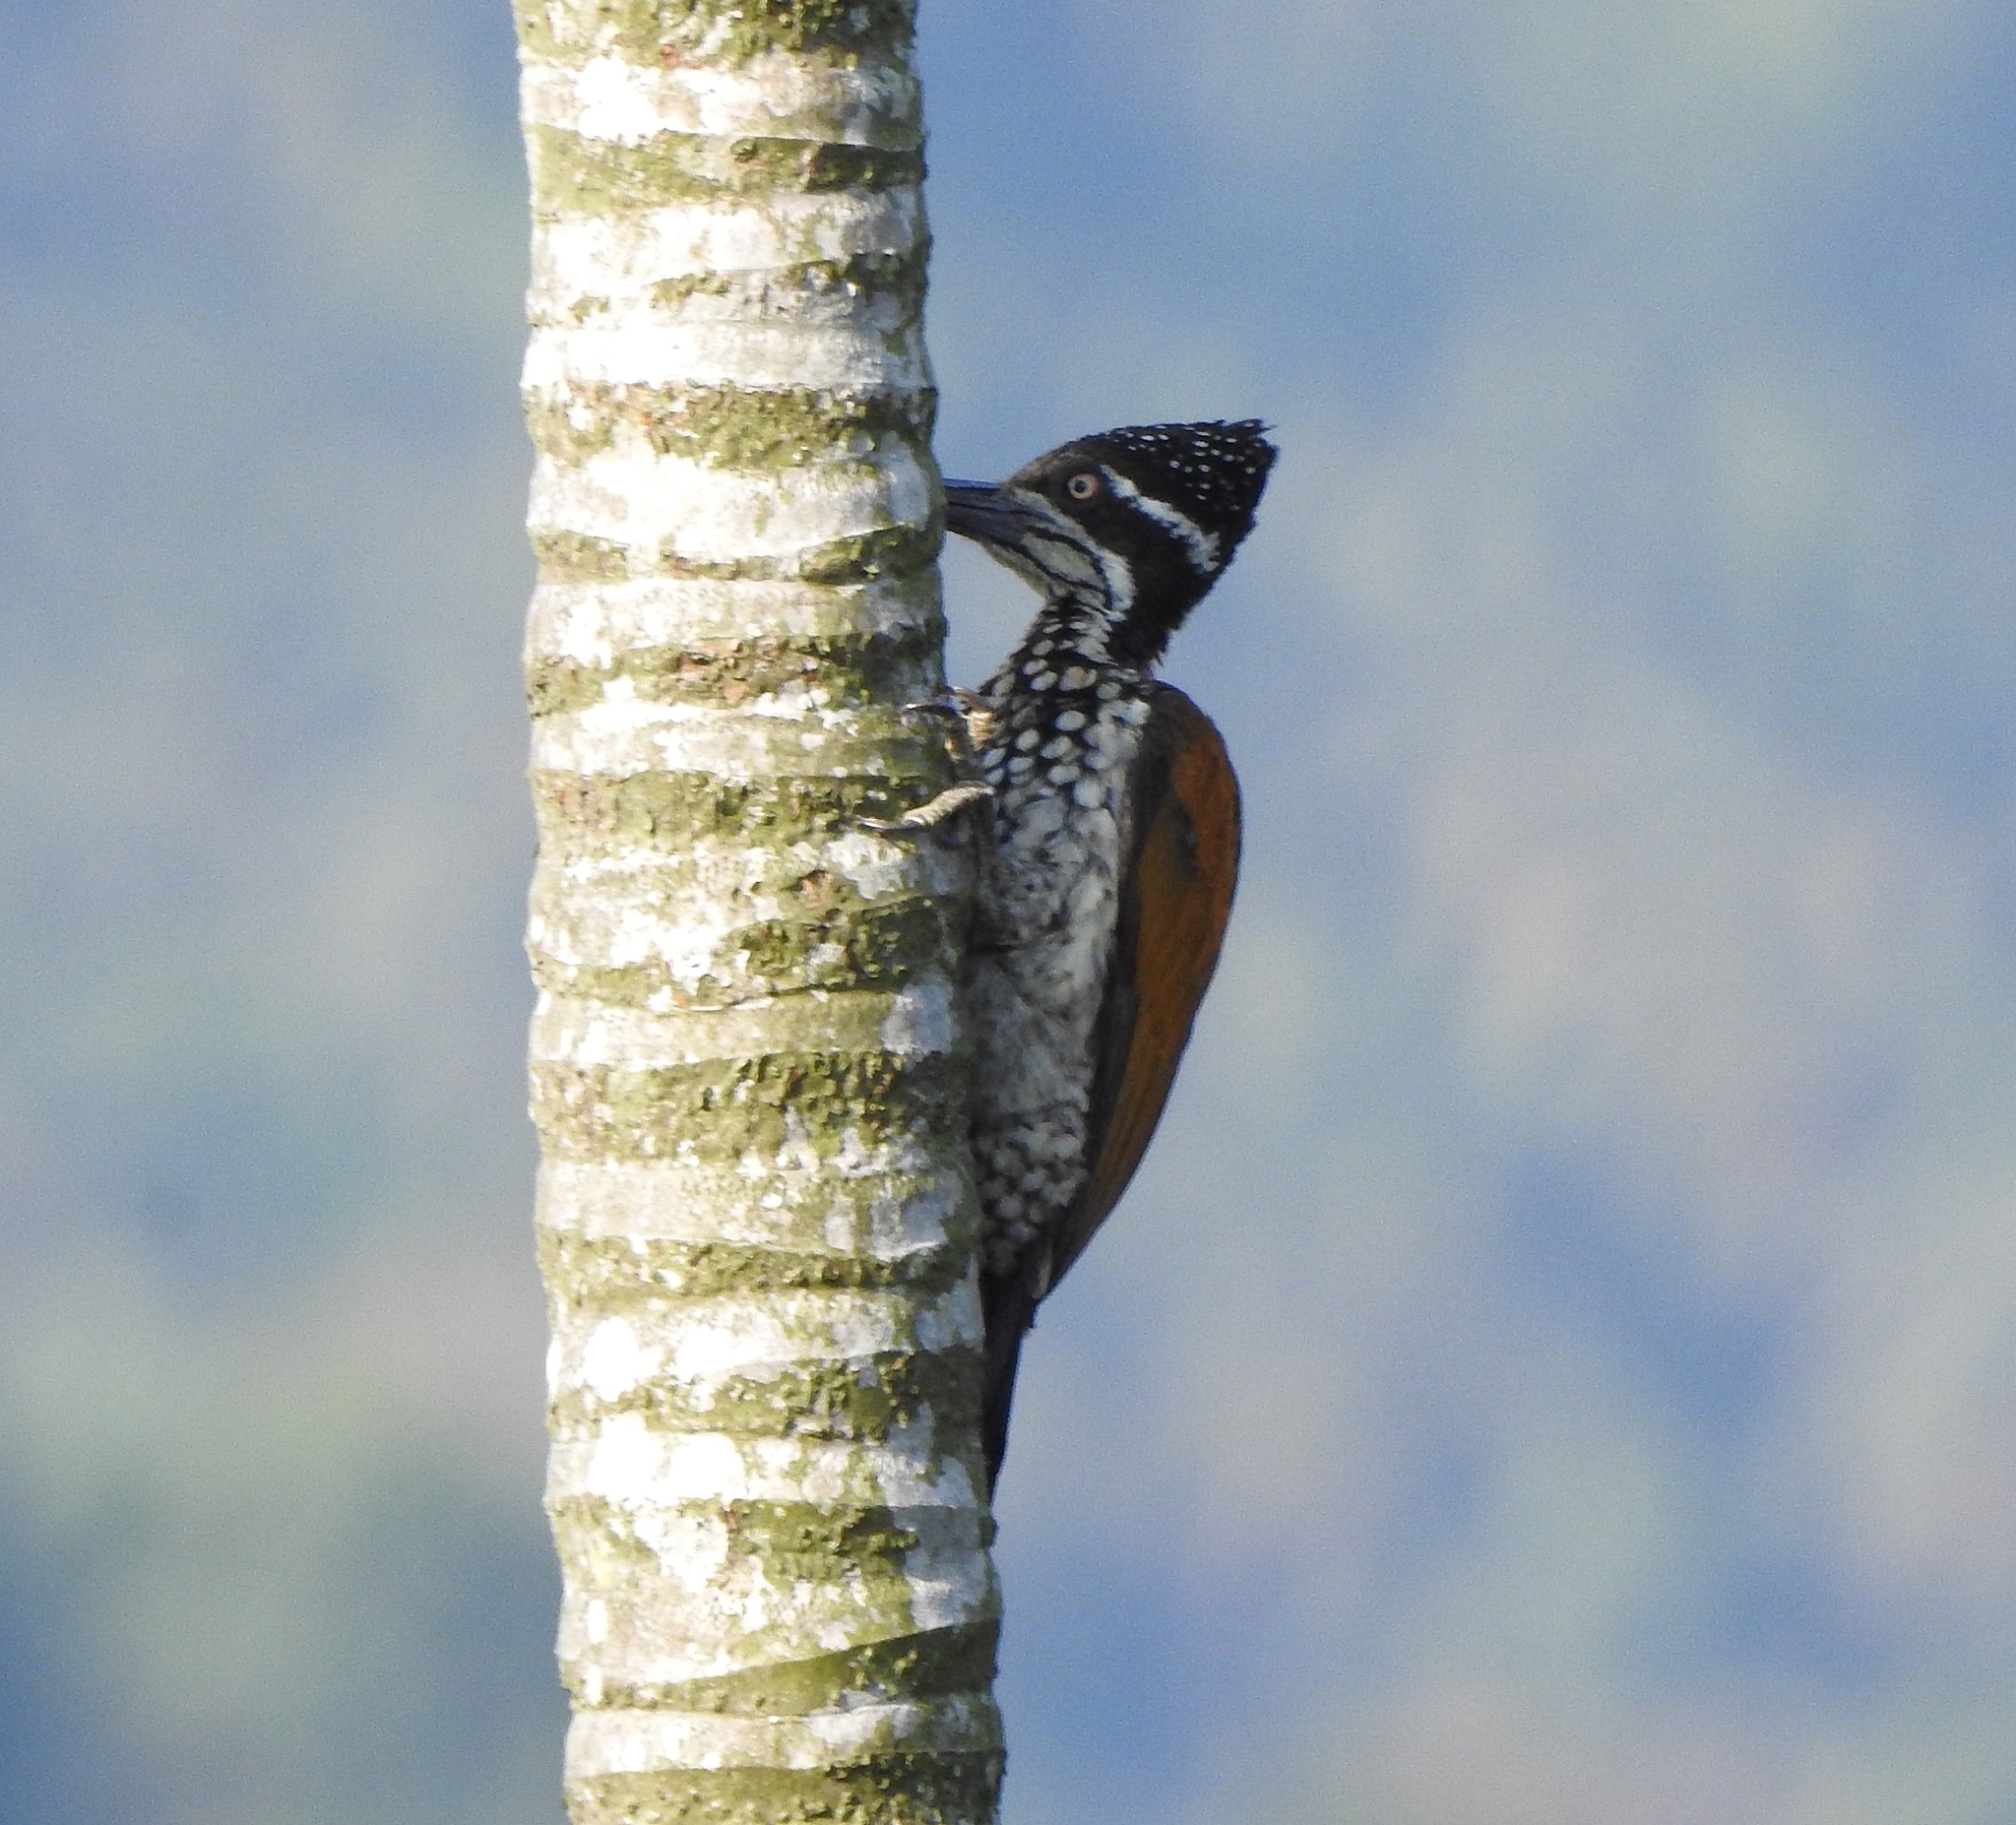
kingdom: Animalia
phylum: Chordata
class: Aves
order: Piciformes
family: Picidae
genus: Chrysocolaptes
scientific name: Chrysocolaptes socialis
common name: Malabar flameback
